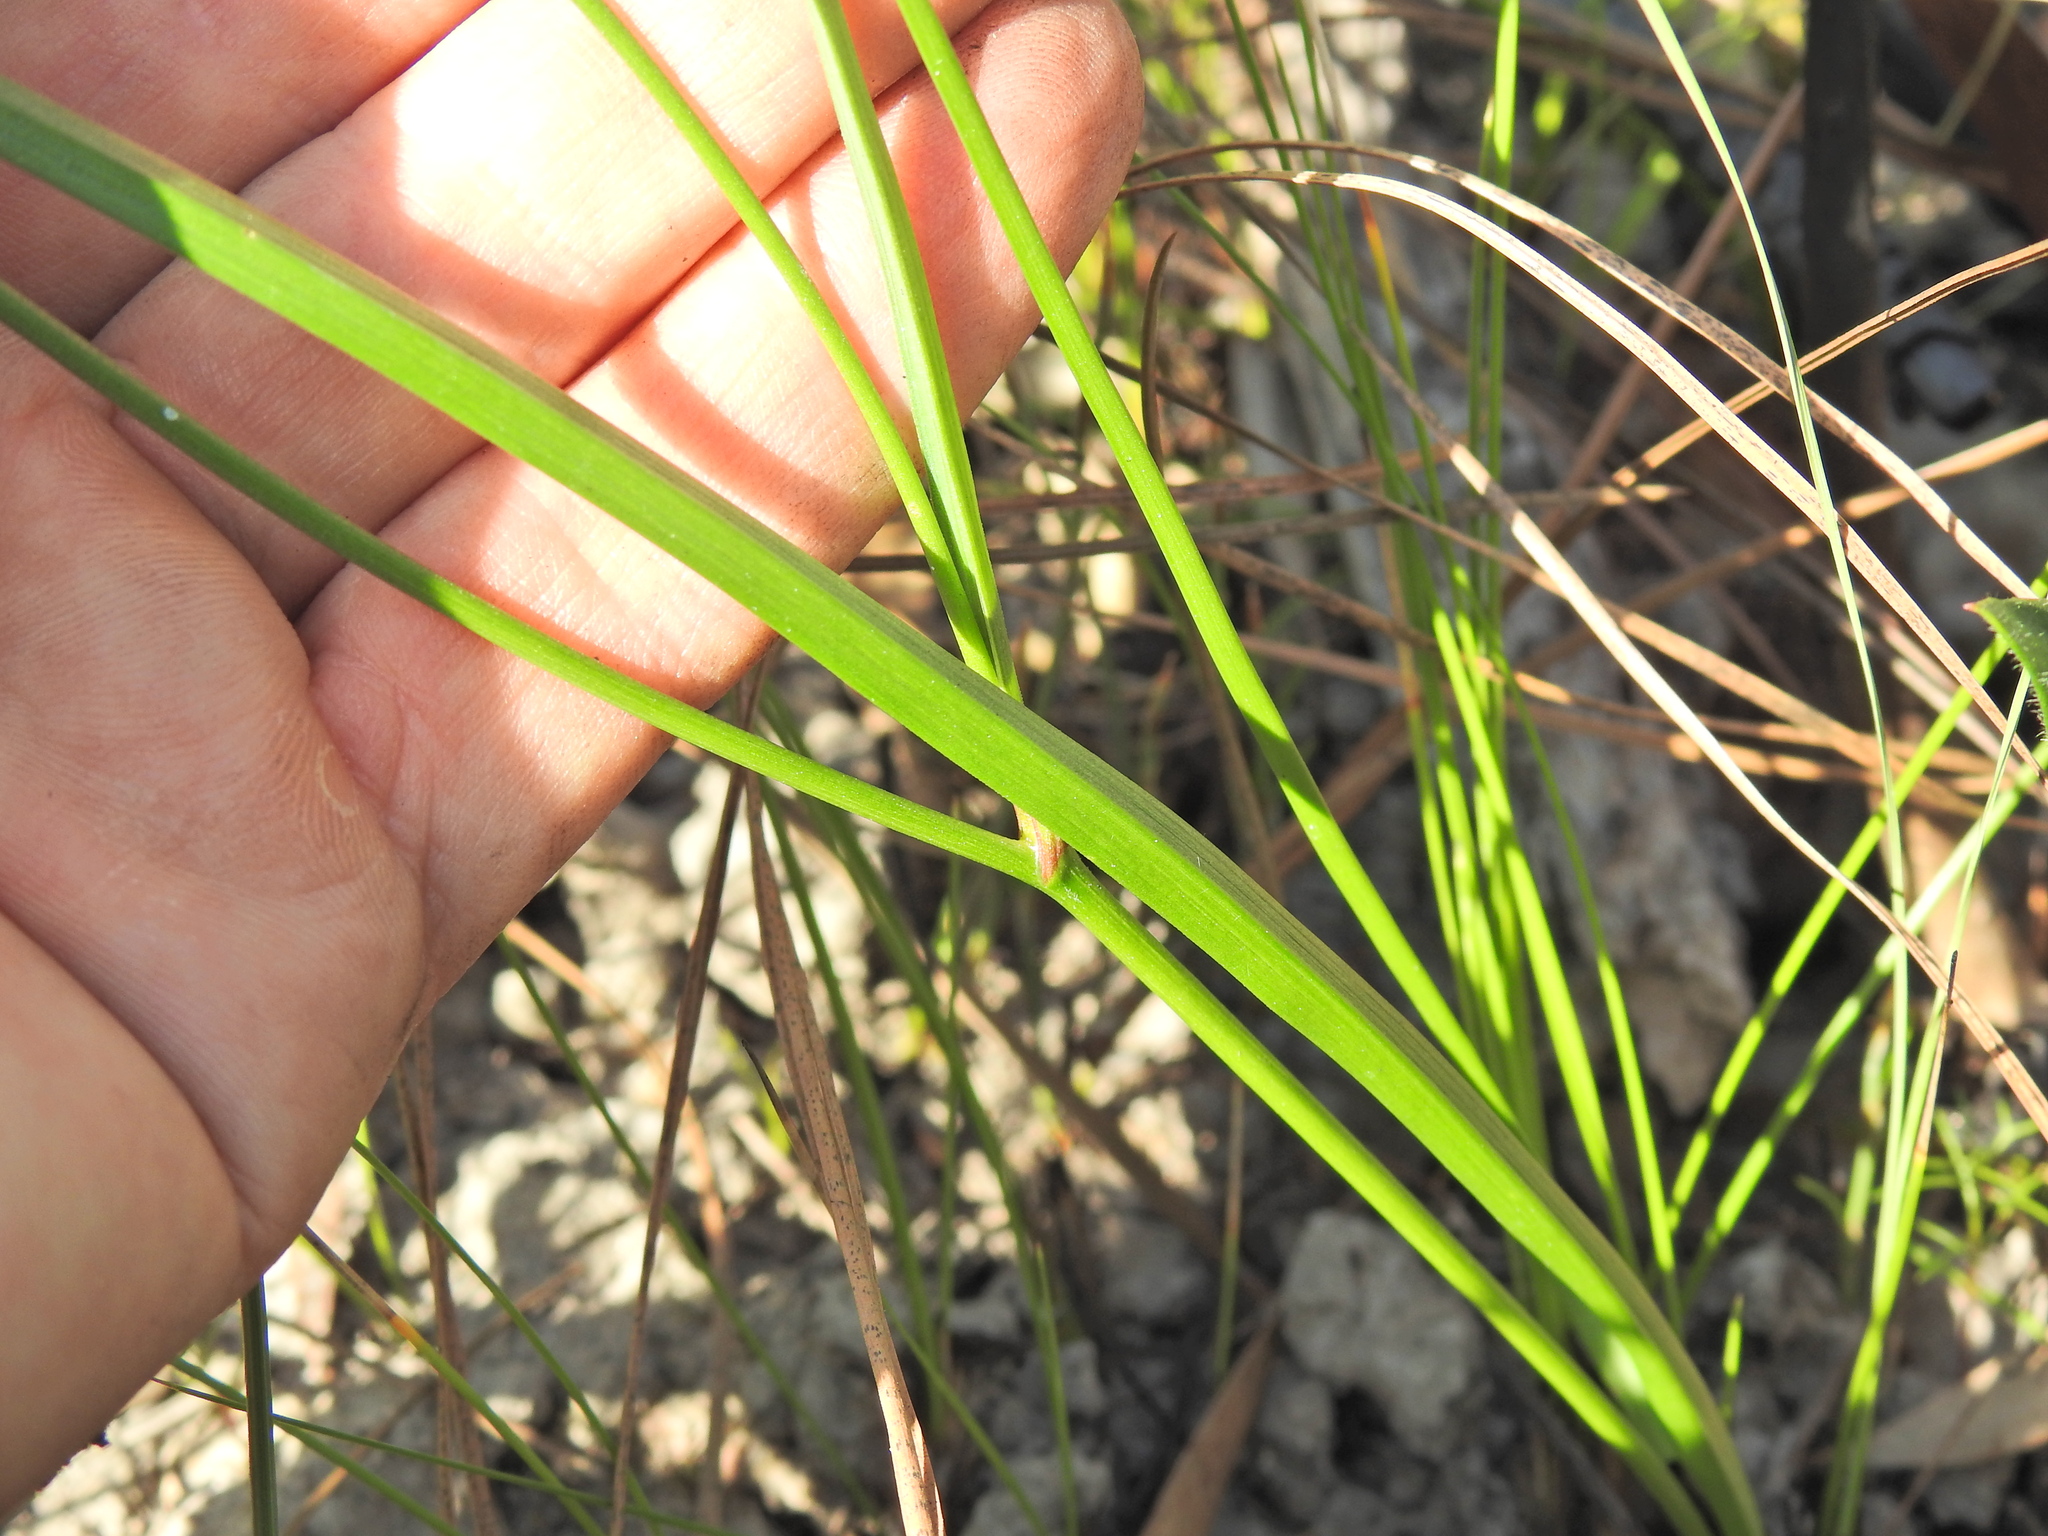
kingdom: Plantae
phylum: Tracheophyta
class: Liliopsida
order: Asparagales
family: Asphodelaceae
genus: Caesia
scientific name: Caesia parviflora
